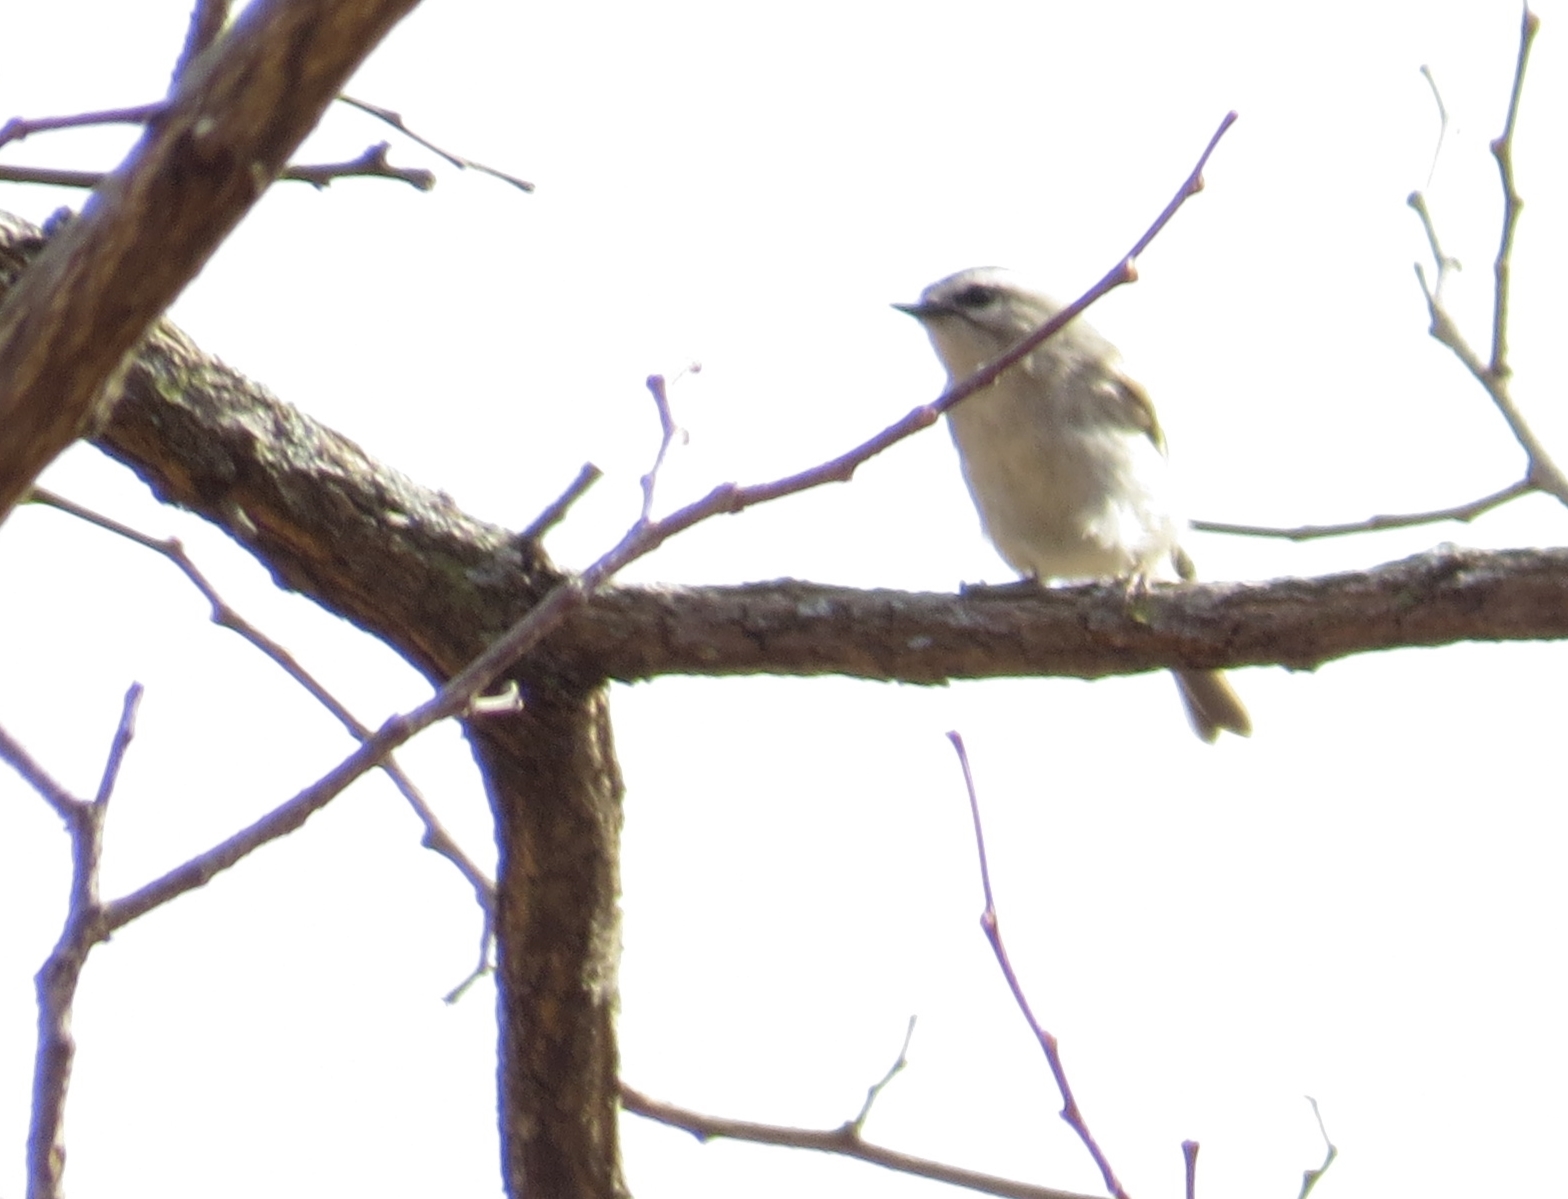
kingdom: Animalia
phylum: Chordata
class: Aves
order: Passeriformes
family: Regulidae
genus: Regulus
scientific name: Regulus satrapa
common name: Golden-crowned kinglet
